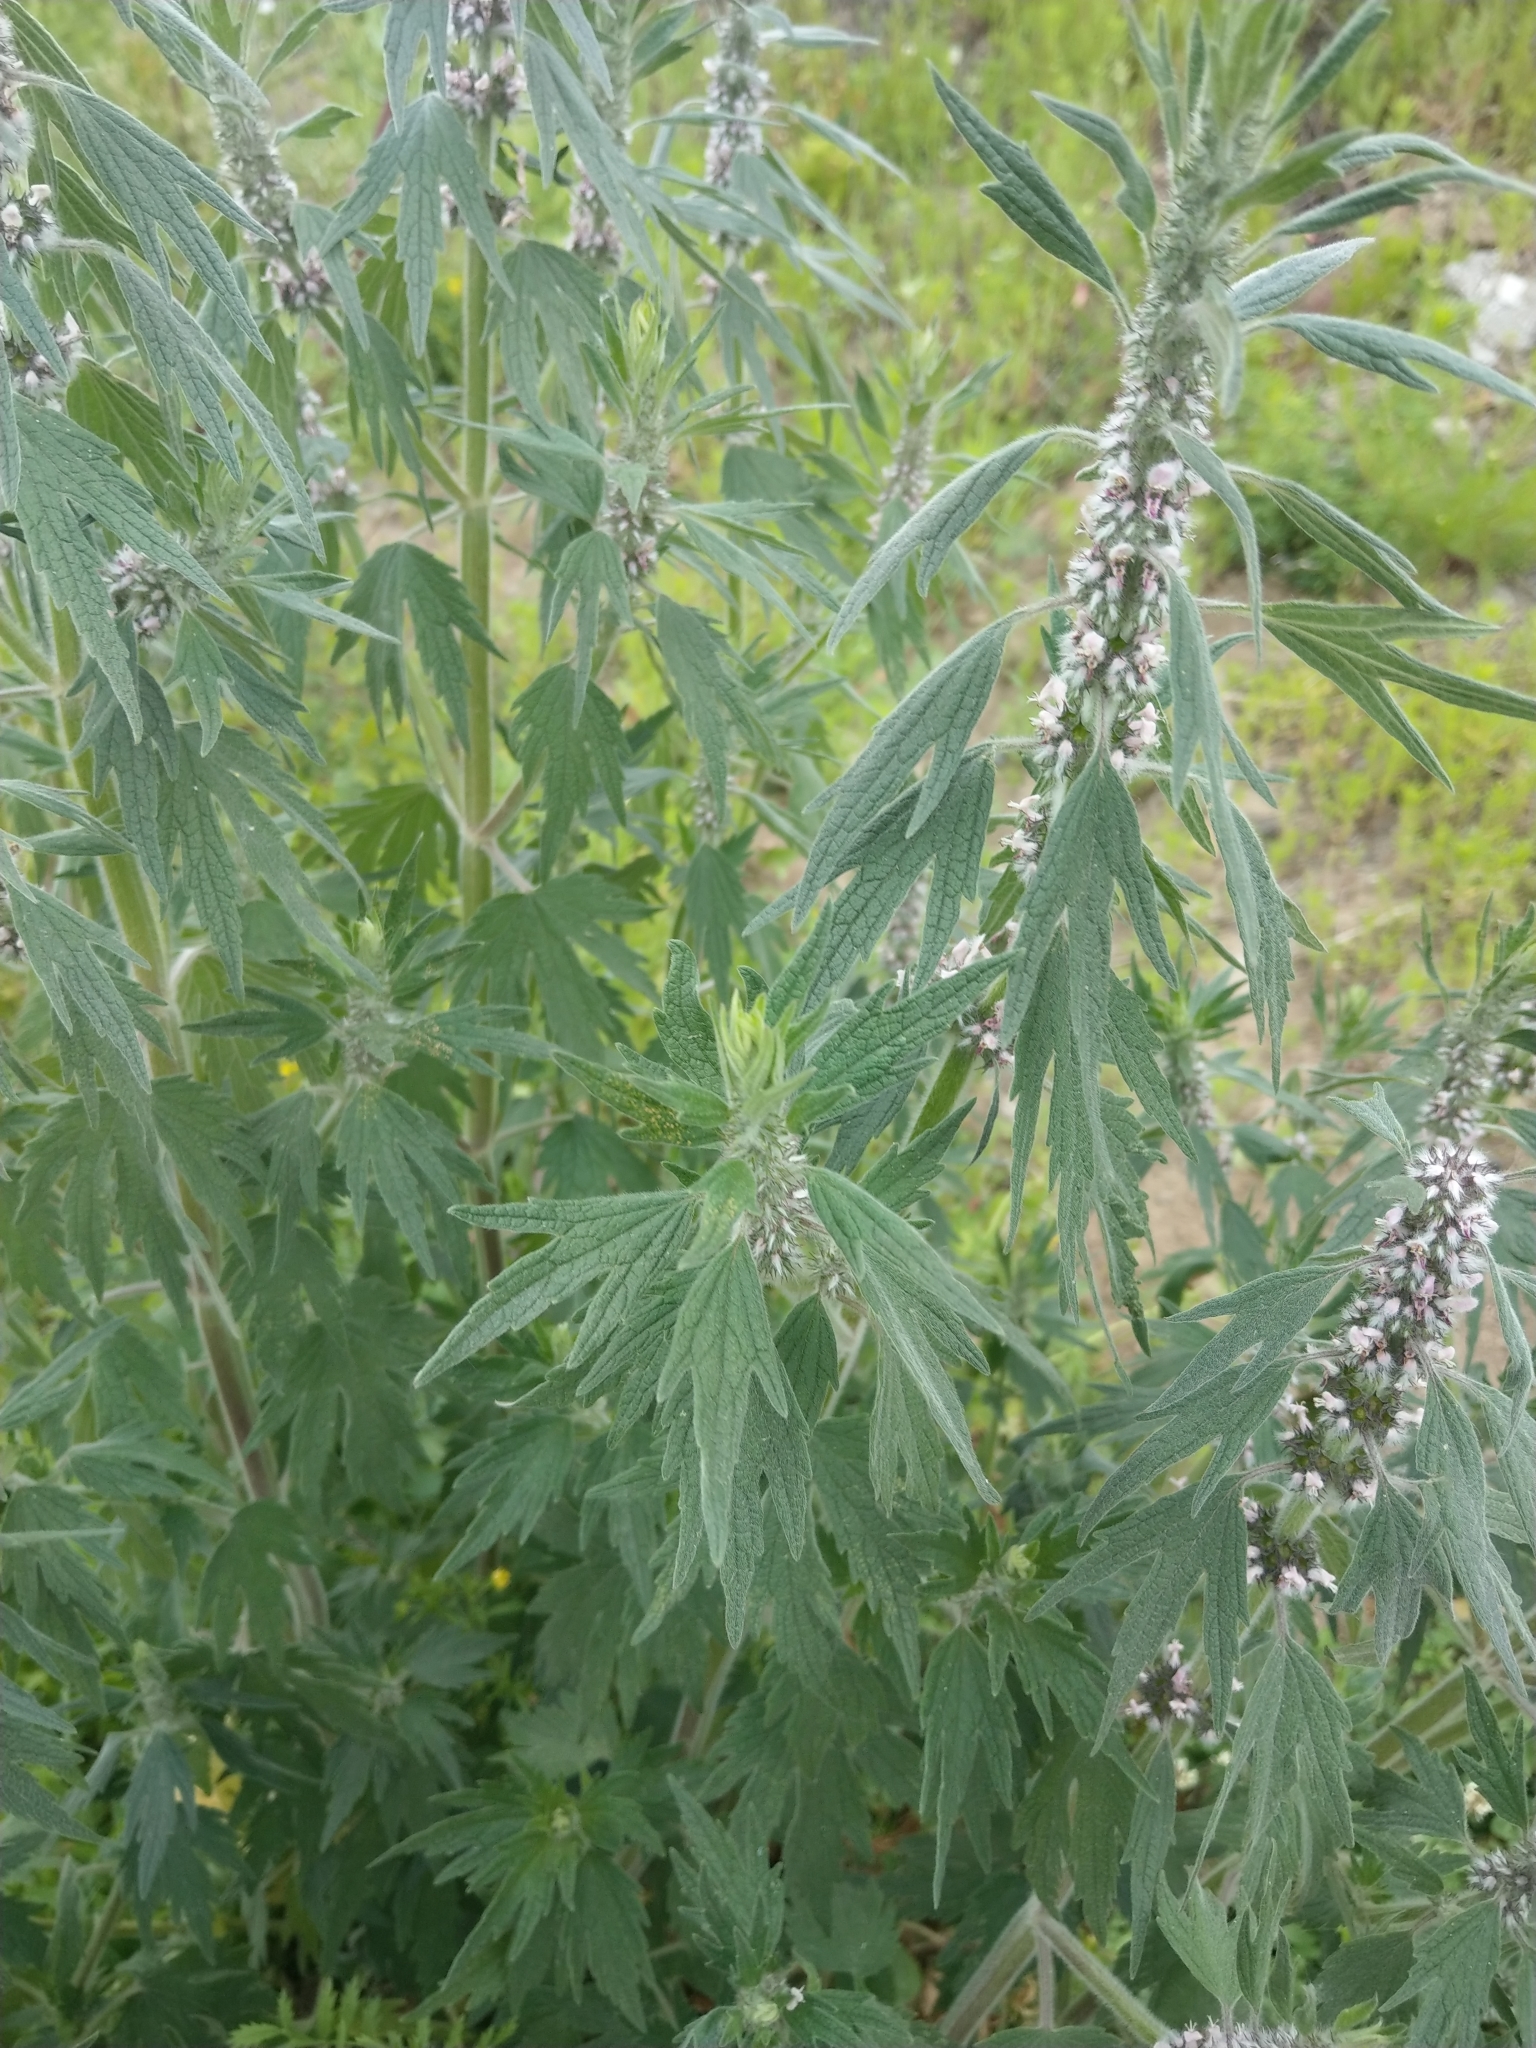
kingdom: Plantae
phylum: Tracheophyta
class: Magnoliopsida
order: Lamiales
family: Lamiaceae
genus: Leonurus
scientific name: Leonurus quinquelobatus
